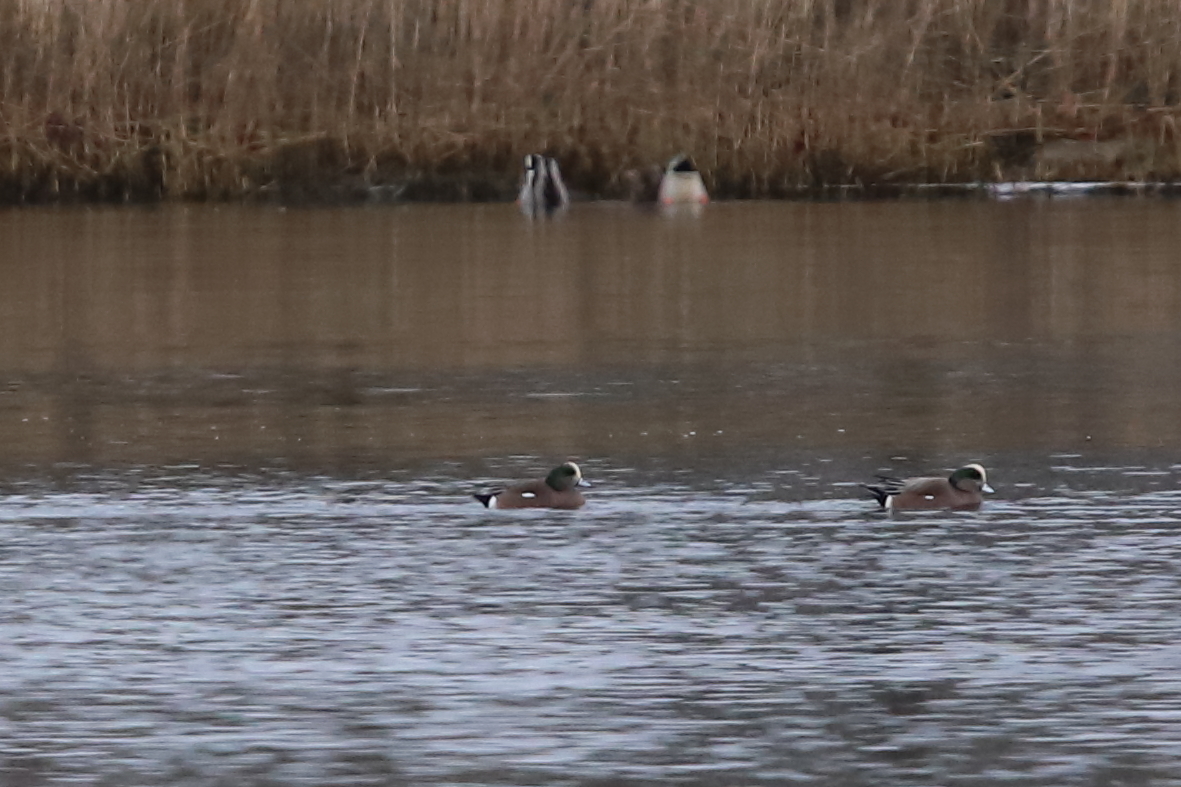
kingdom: Animalia
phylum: Chordata
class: Aves
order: Anseriformes
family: Anatidae
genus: Mareca
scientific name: Mareca americana
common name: American wigeon
